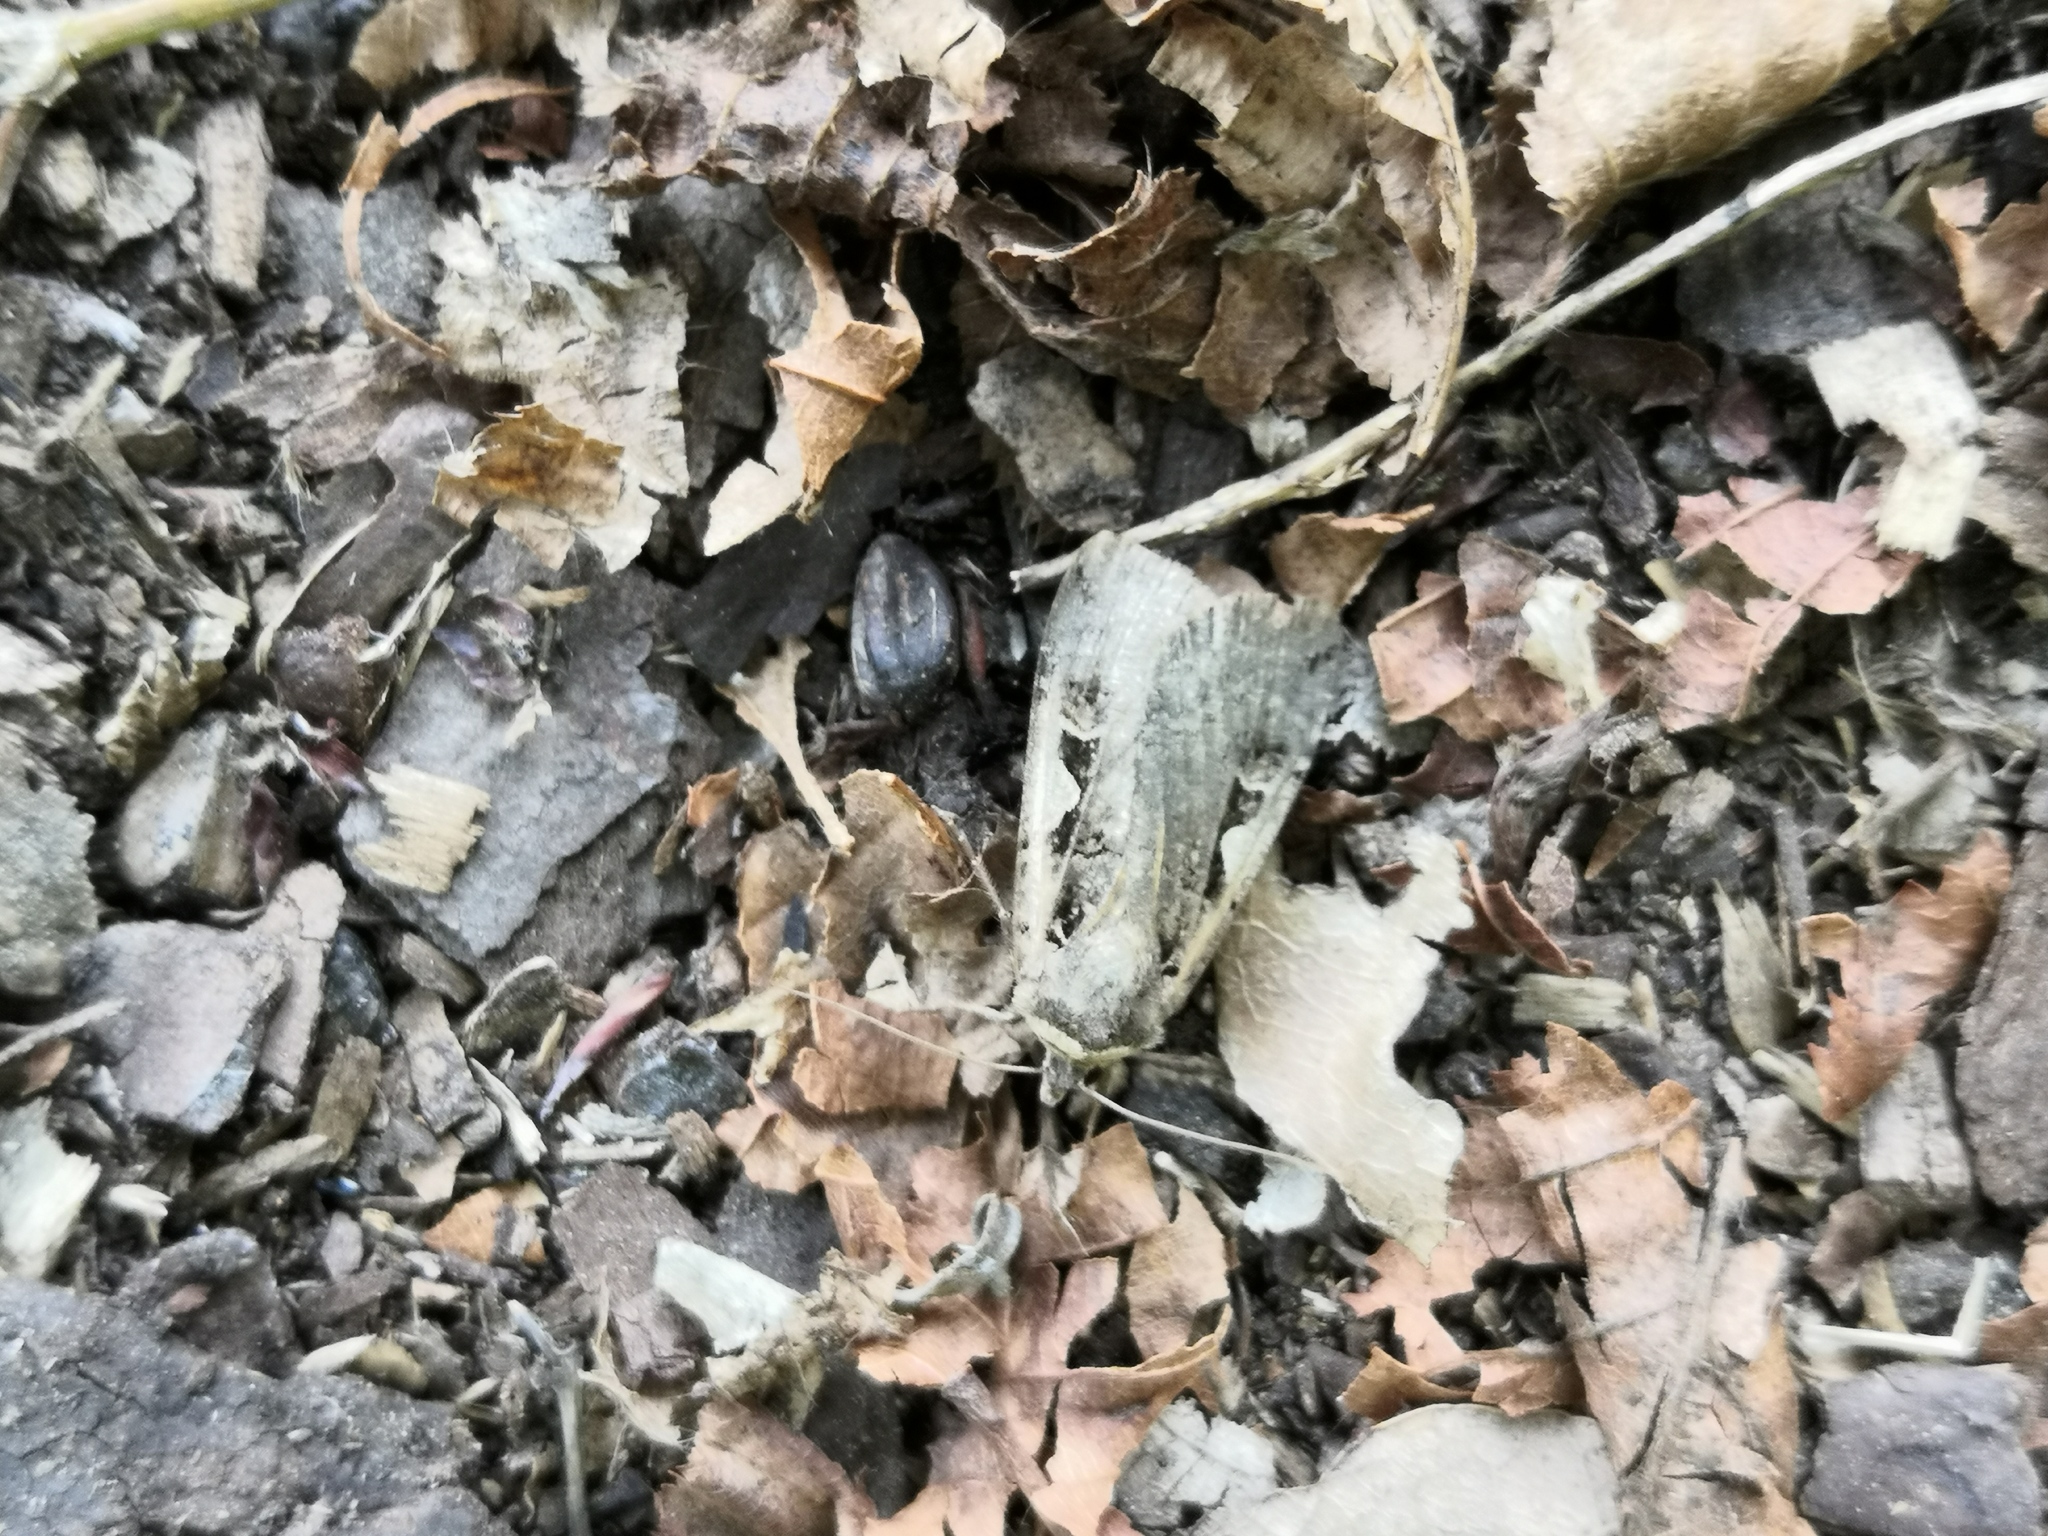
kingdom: Animalia
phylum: Arthropoda
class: Insecta
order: Lepidoptera
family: Noctuidae
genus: Xestia
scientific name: Xestia c-nigrum
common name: Setaceous hebrew character
